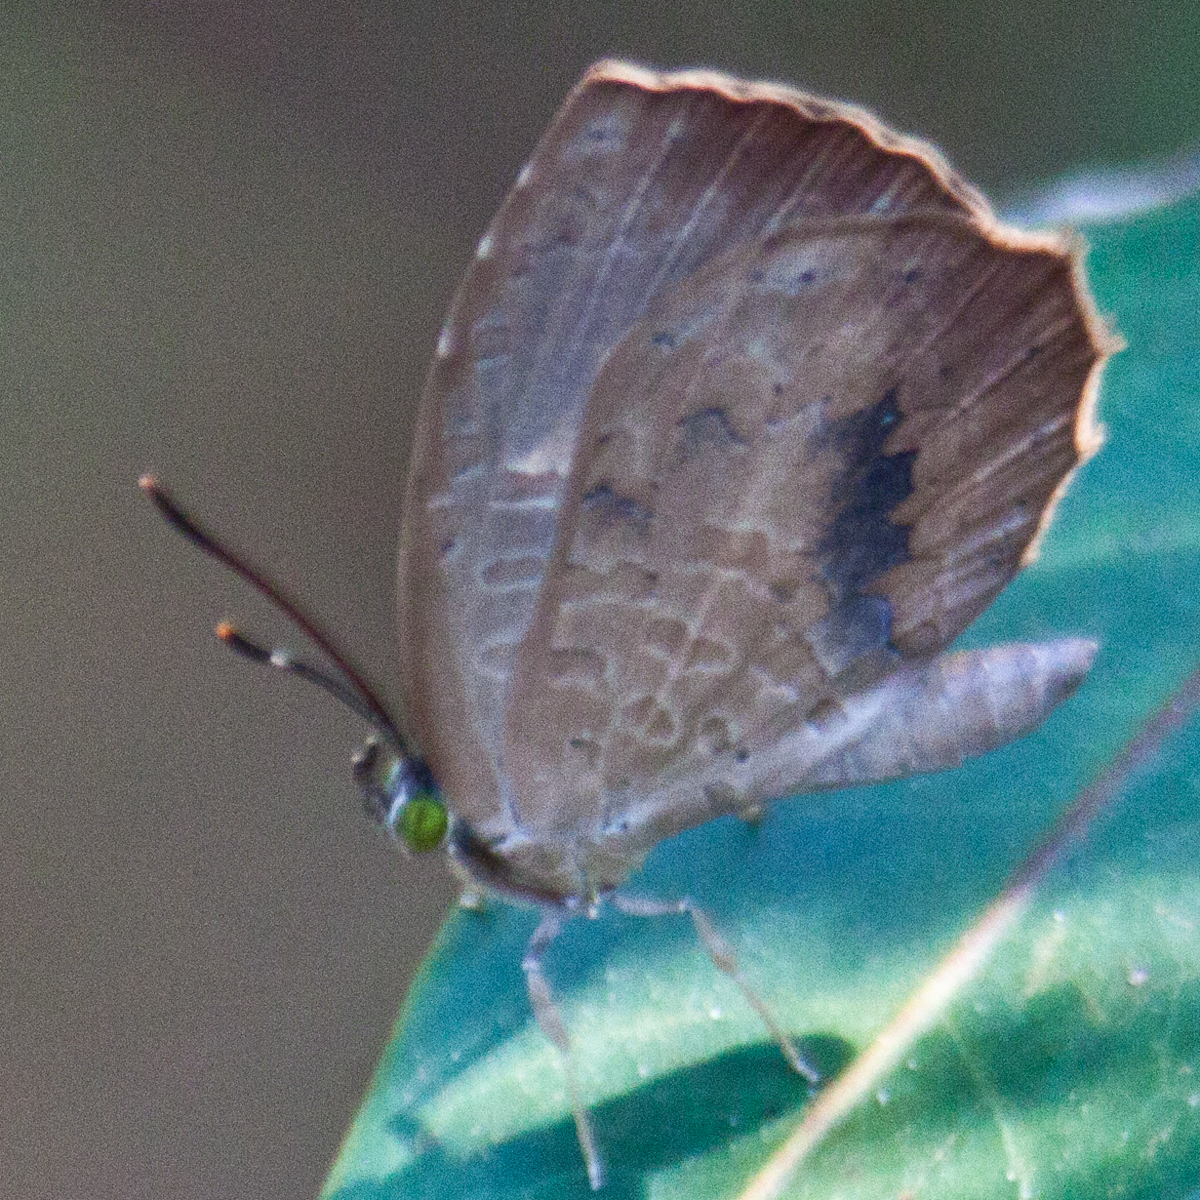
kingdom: Animalia
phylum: Arthropoda
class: Insecta
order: Lepidoptera
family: Lycaenidae
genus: Miletus
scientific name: Miletus mallus
